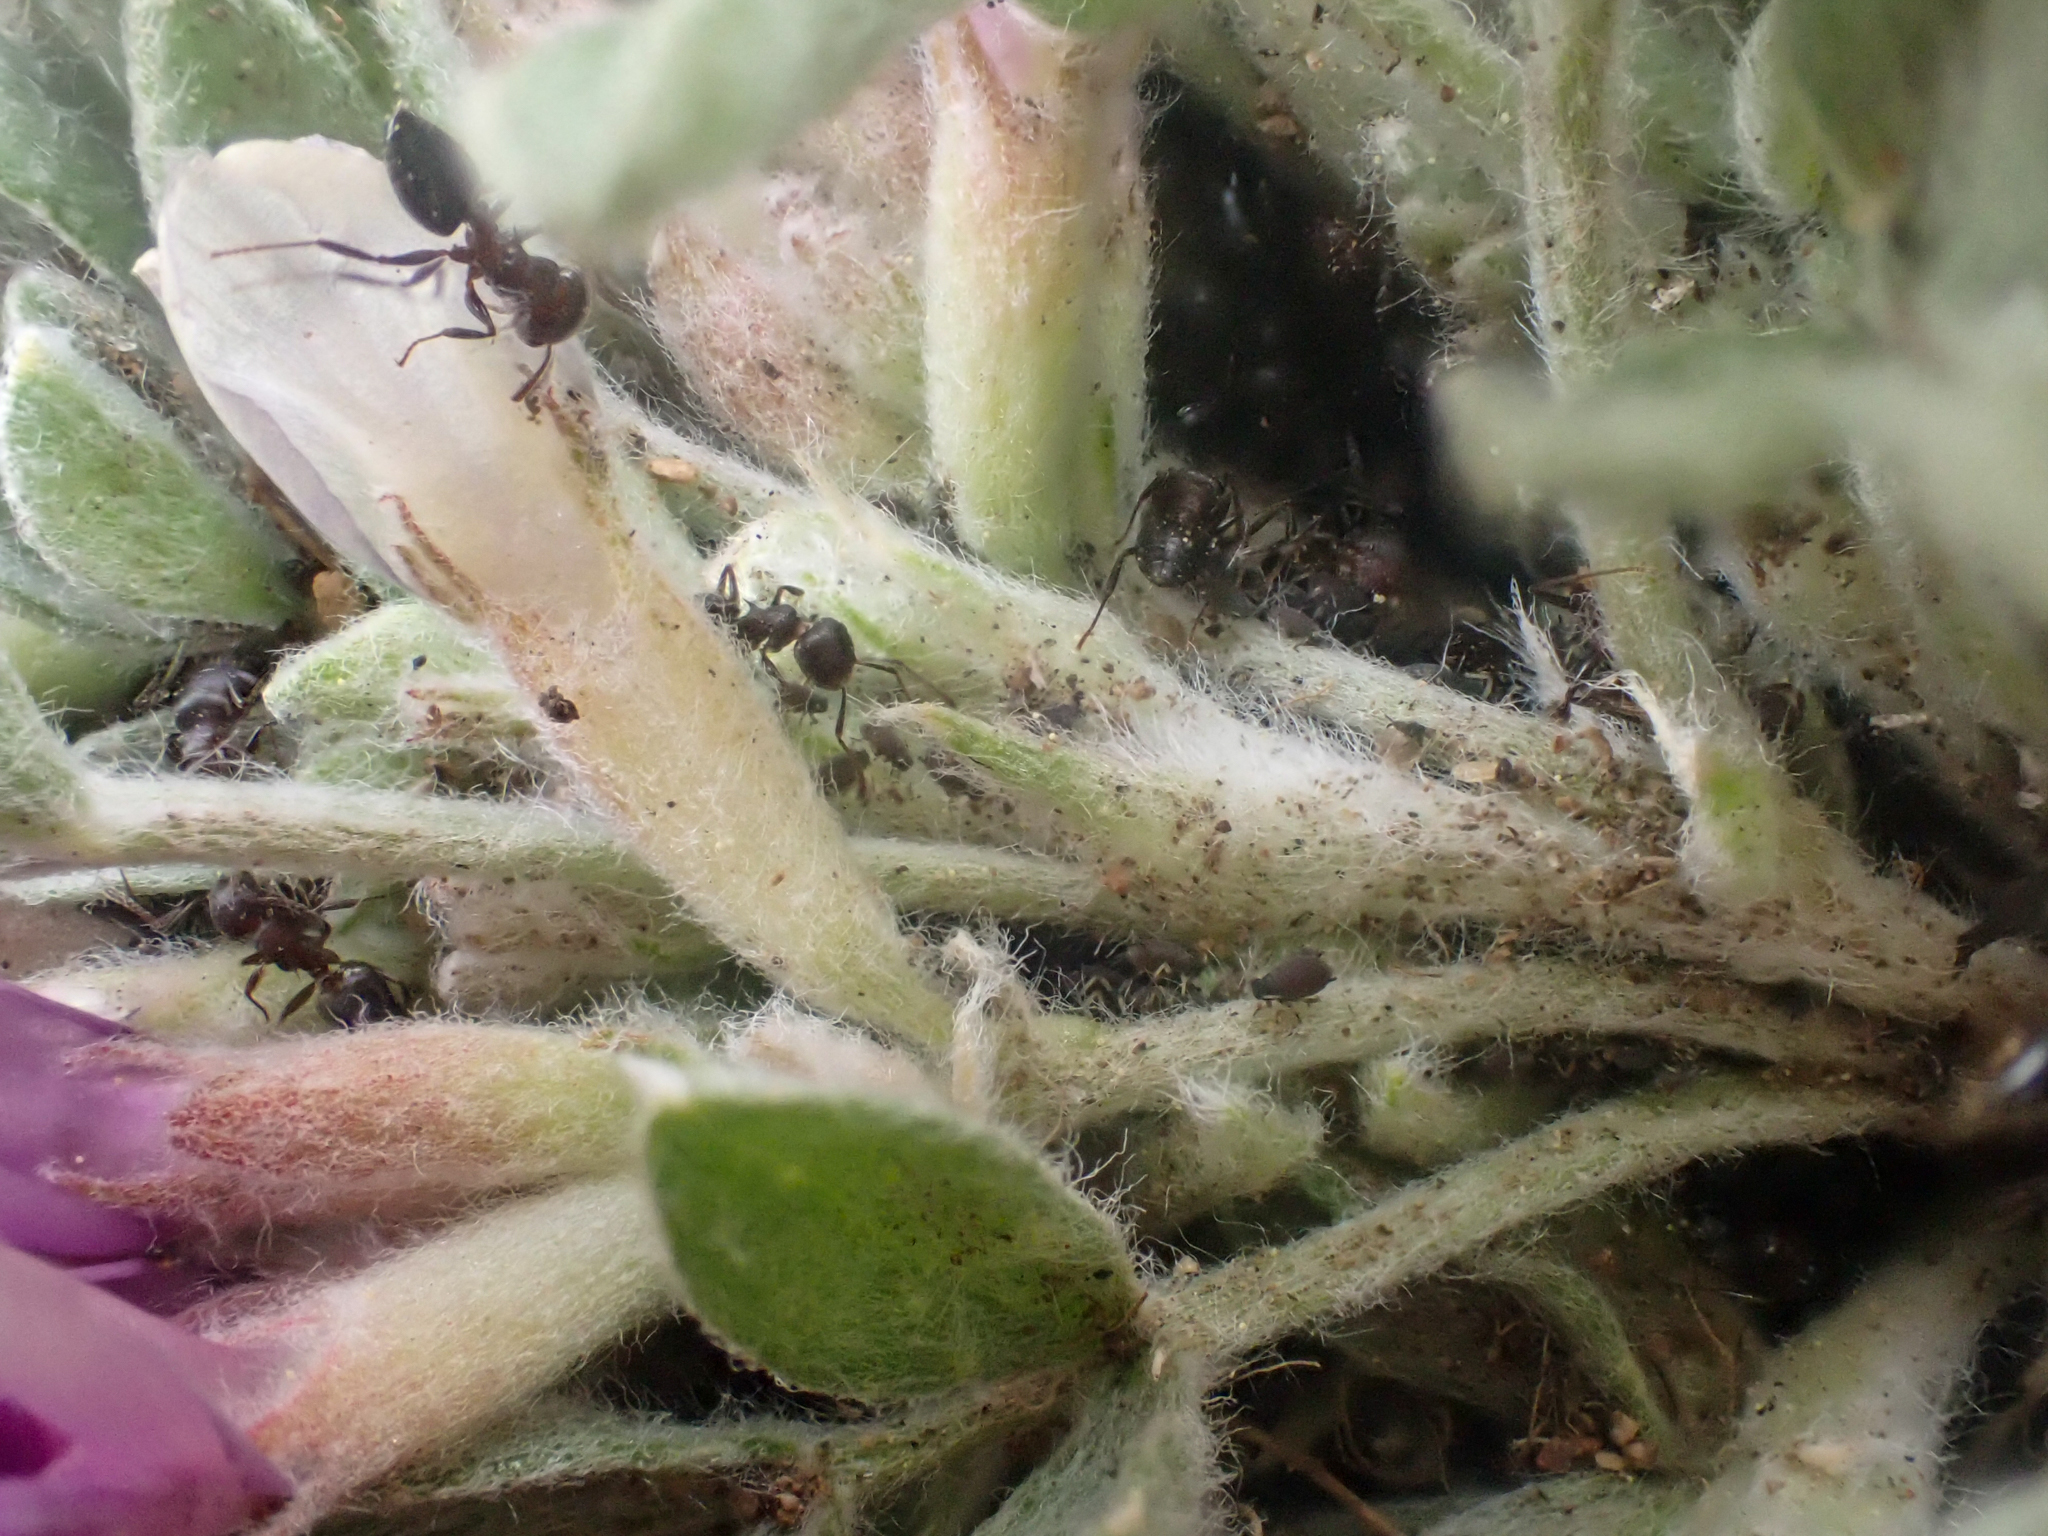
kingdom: Plantae
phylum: Tracheophyta
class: Magnoliopsida
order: Fabales
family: Fabaceae
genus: Astragalus
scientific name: Astragalus purshii
